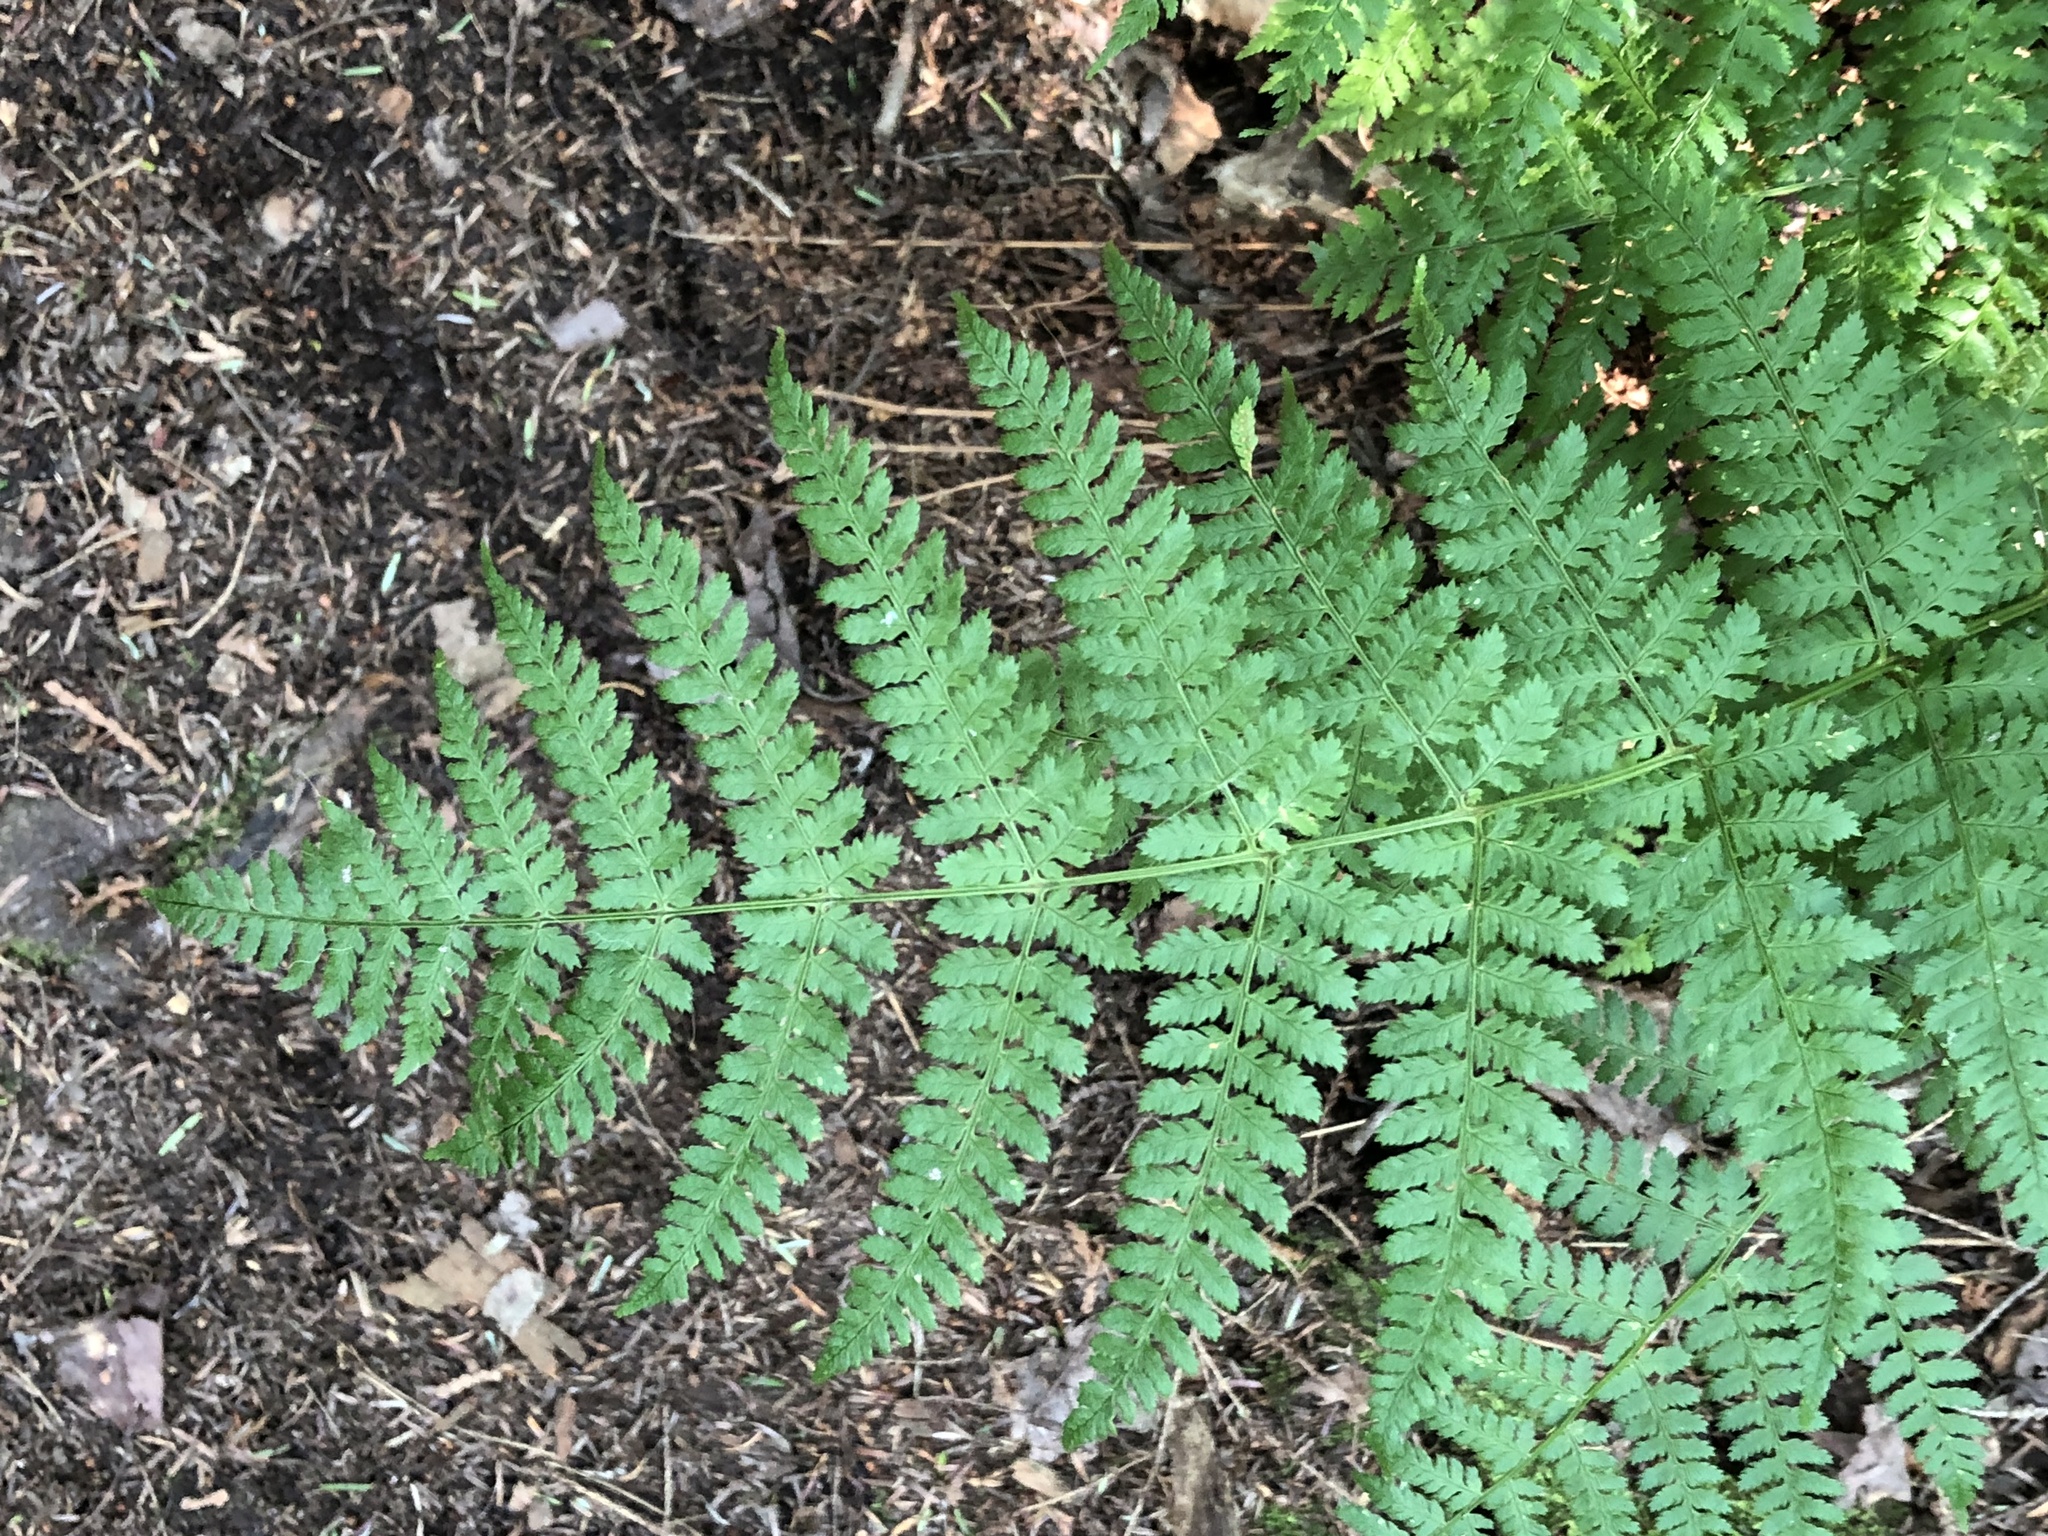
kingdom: Plantae
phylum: Tracheophyta
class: Polypodiopsida
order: Polypodiales
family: Dryopteridaceae
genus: Dryopteris
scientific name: Dryopteris intermedia
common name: Evergreen wood fern
